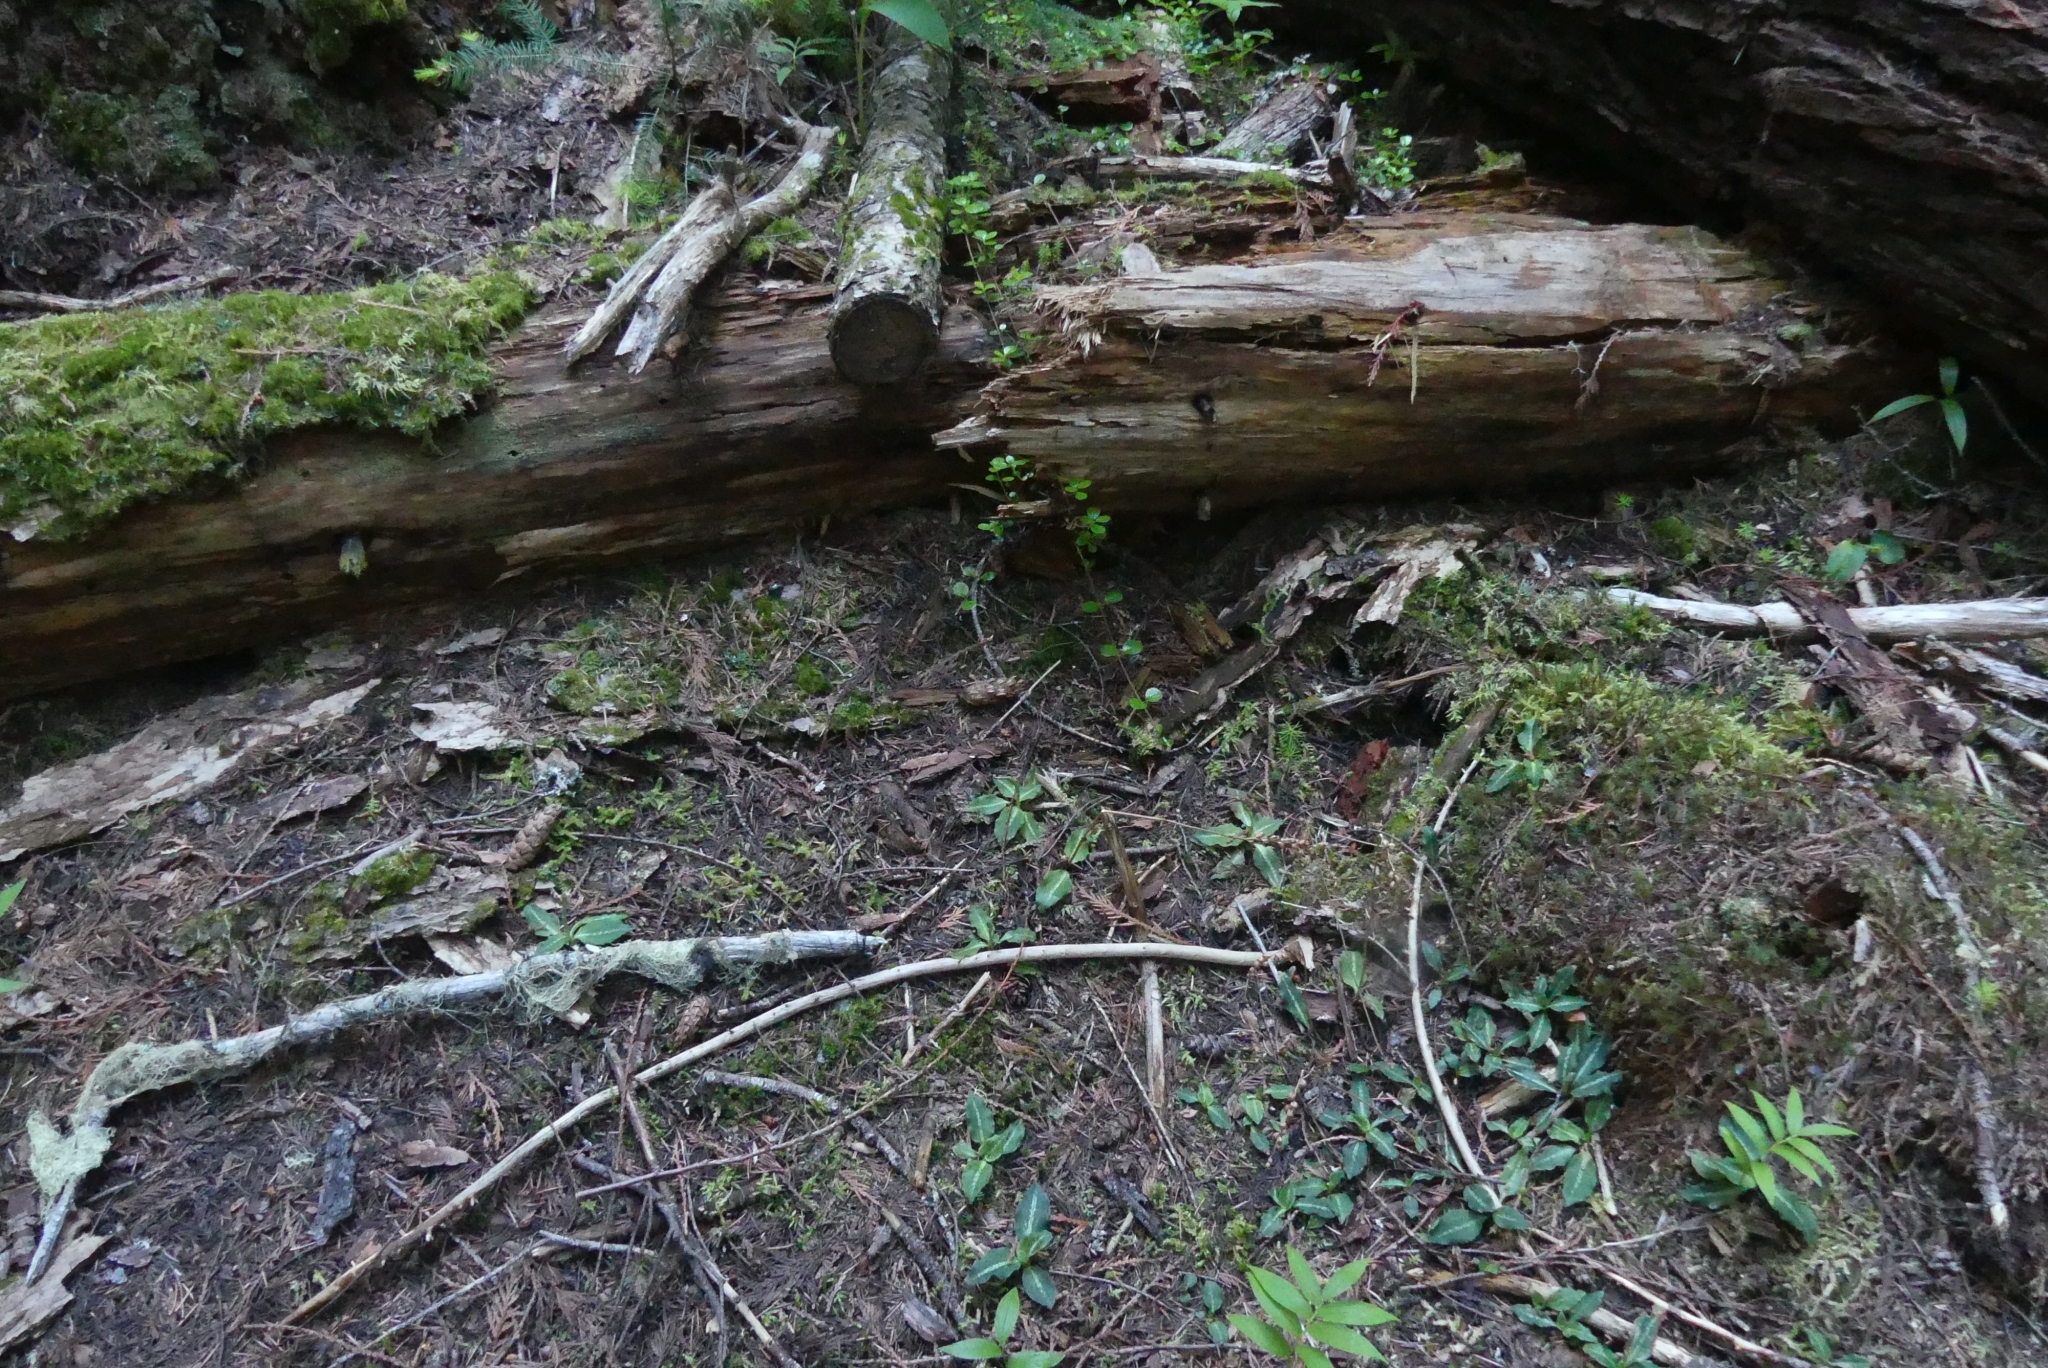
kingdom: Plantae
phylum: Tracheophyta
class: Magnoliopsida
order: Dipsacales
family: Caprifoliaceae
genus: Linnaea
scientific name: Linnaea borealis
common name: Twinflower
